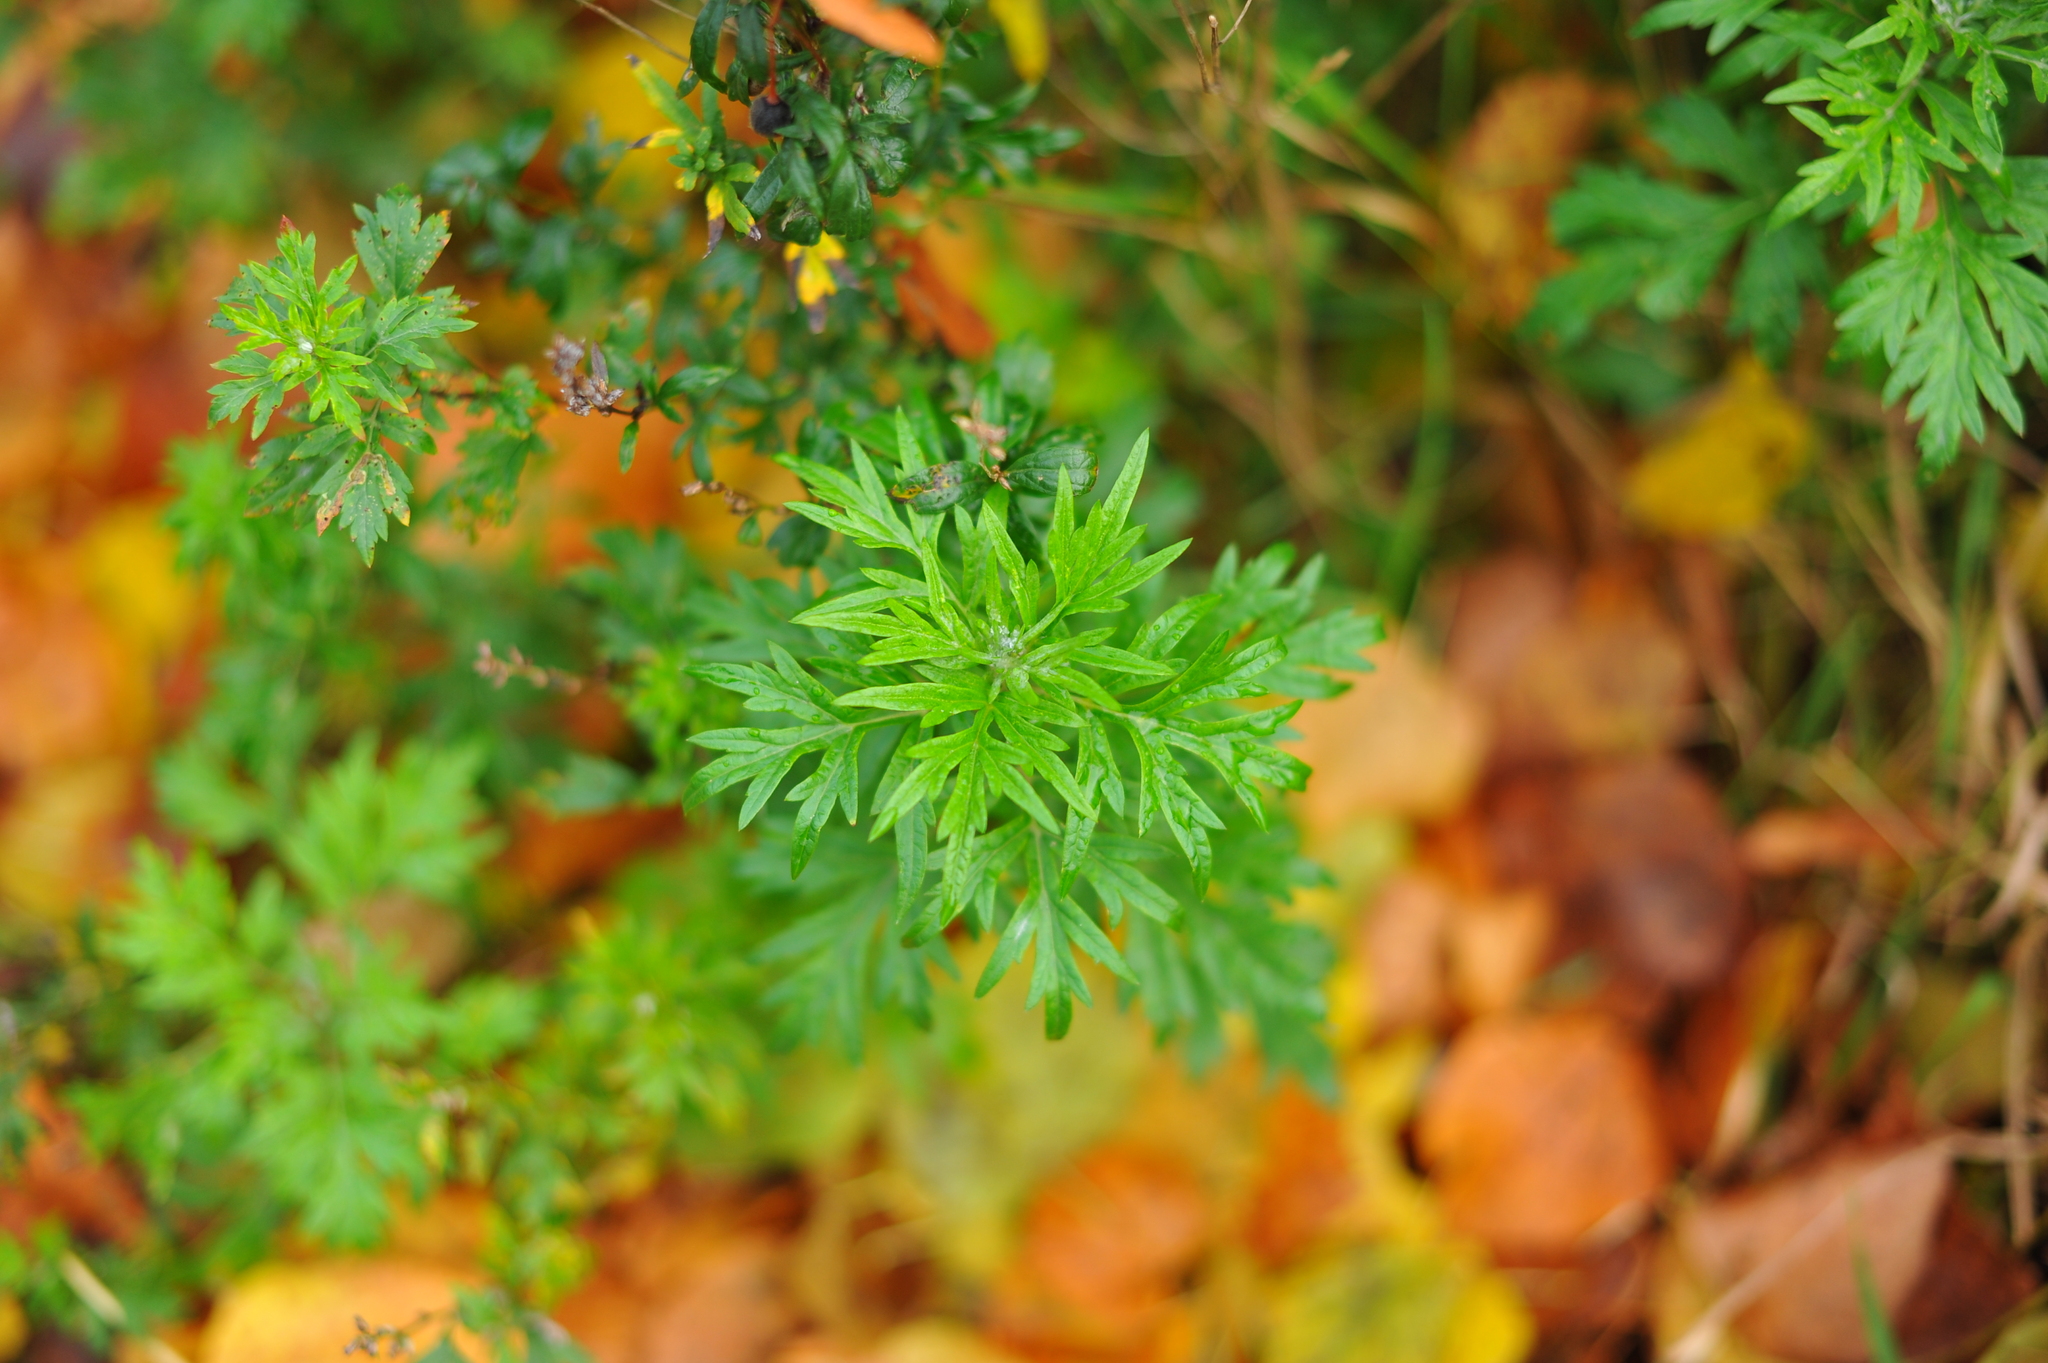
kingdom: Plantae
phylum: Tracheophyta
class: Magnoliopsida
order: Asterales
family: Asteraceae
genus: Artemisia
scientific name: Artemisia vulgaris
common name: Mugwort
